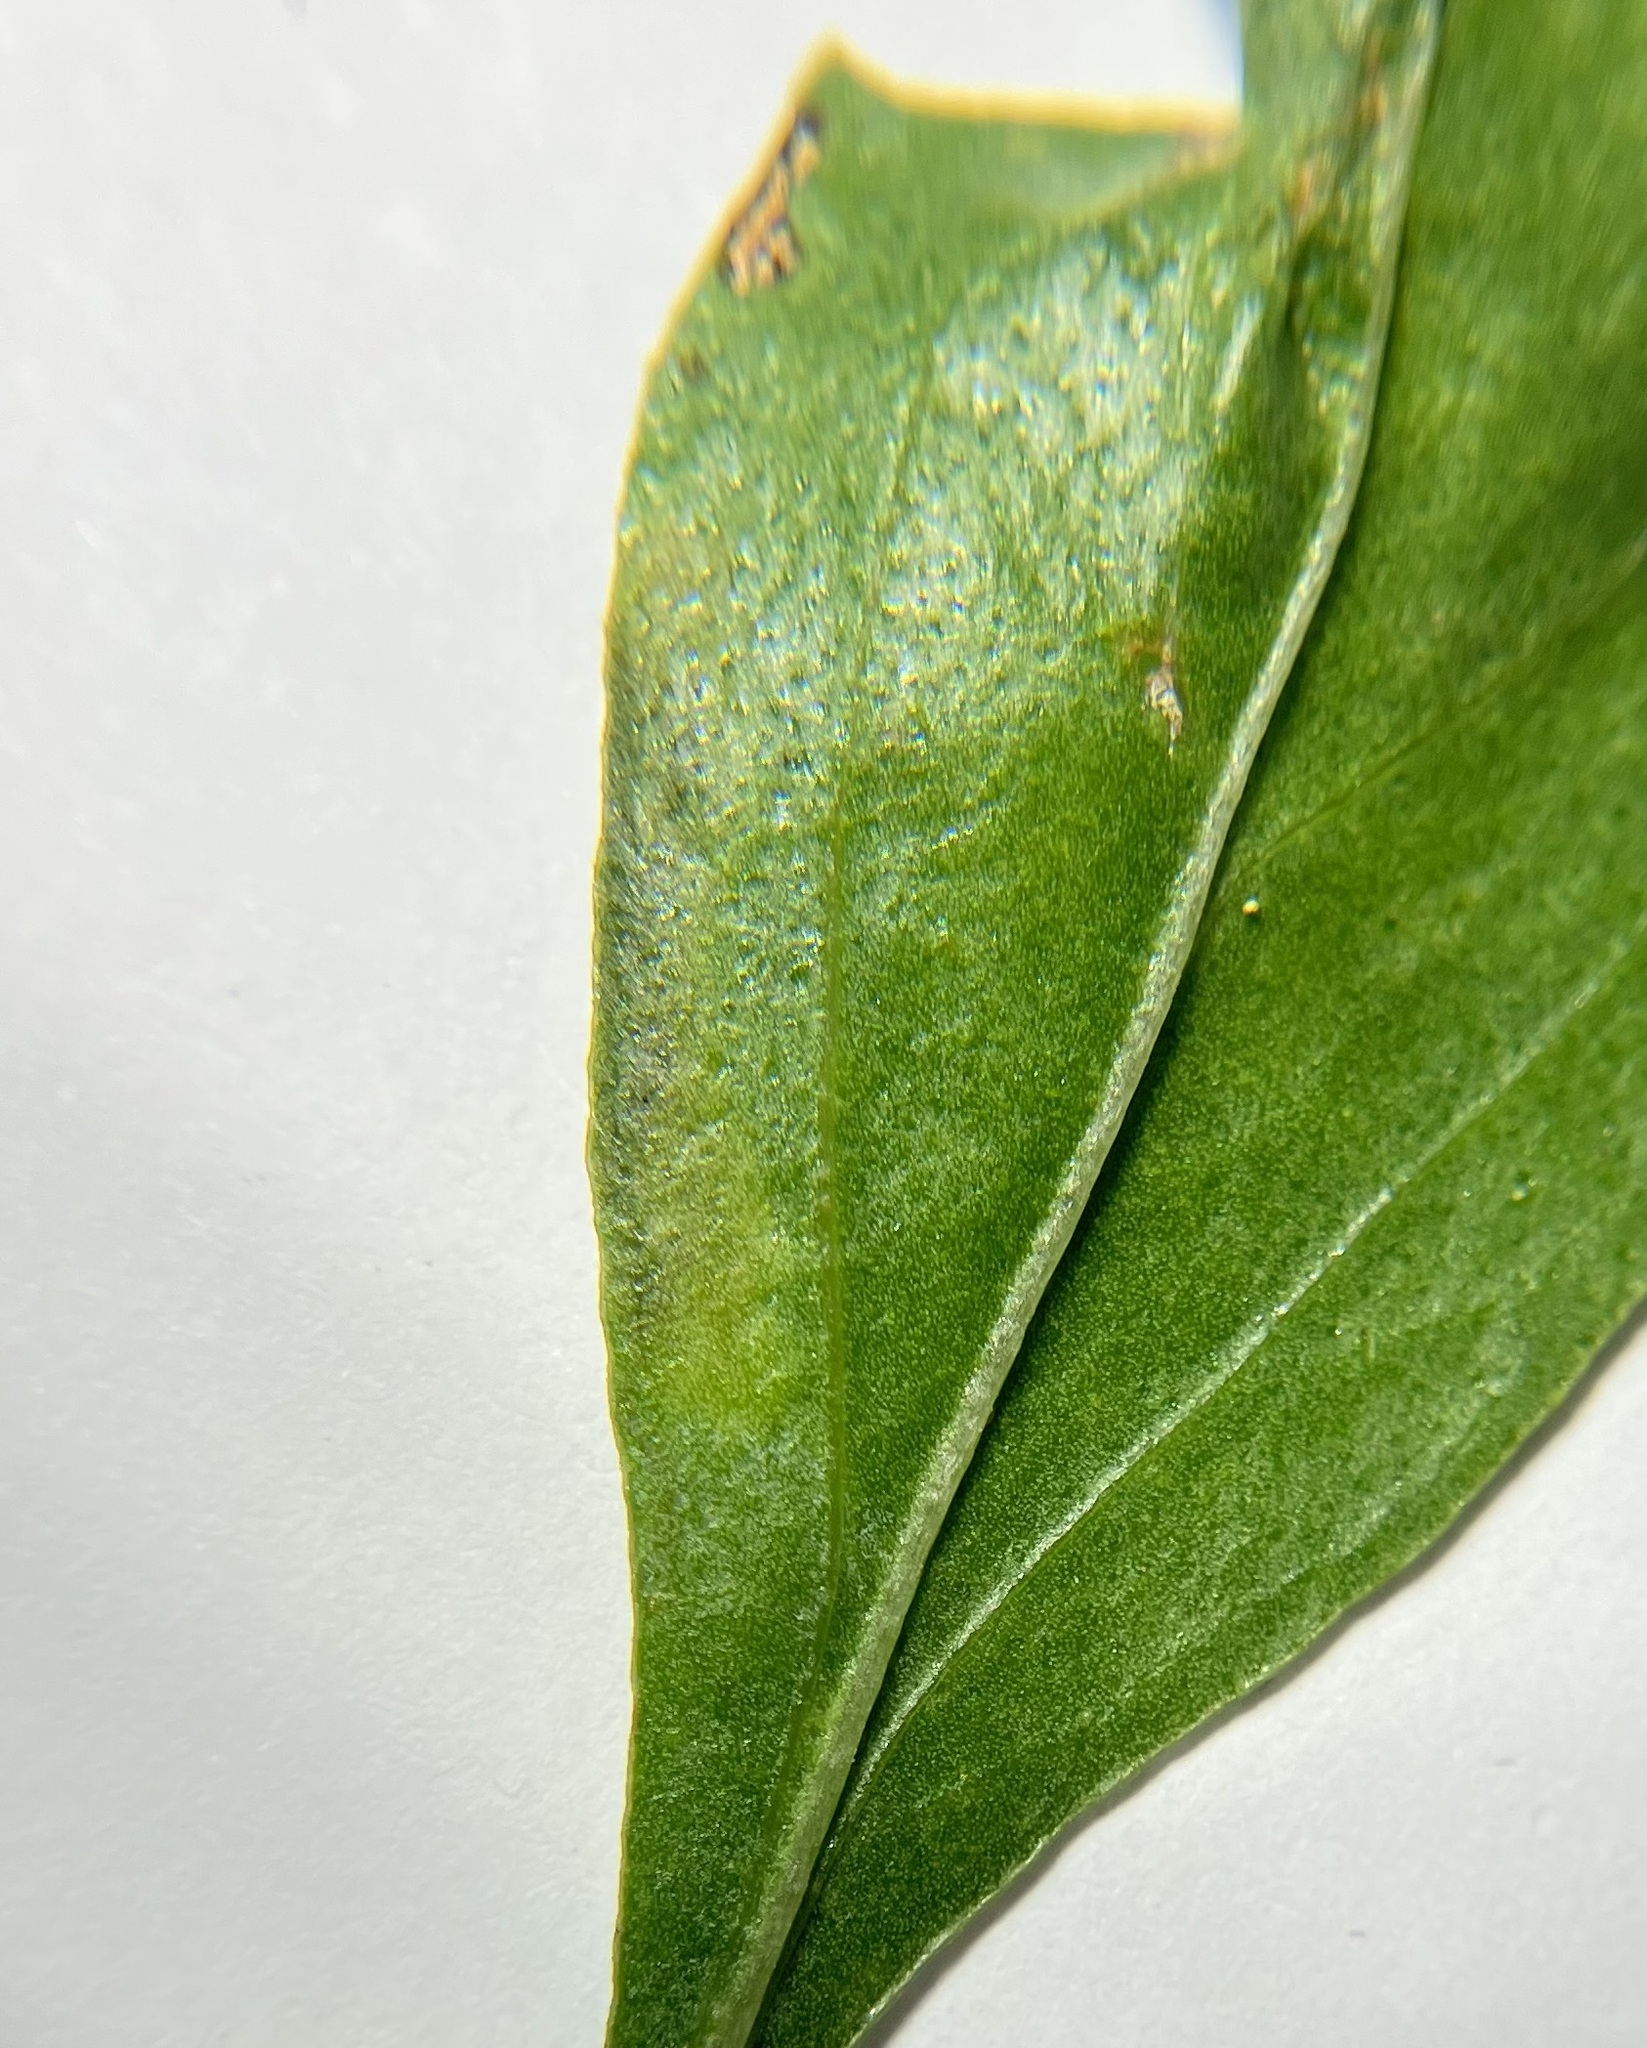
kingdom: Animalia
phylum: Arthropoda
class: Insecta
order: Diptera
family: Agromyzidae
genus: Calycomyza
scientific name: Calycomyza humeralis
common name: Aster leafminer
